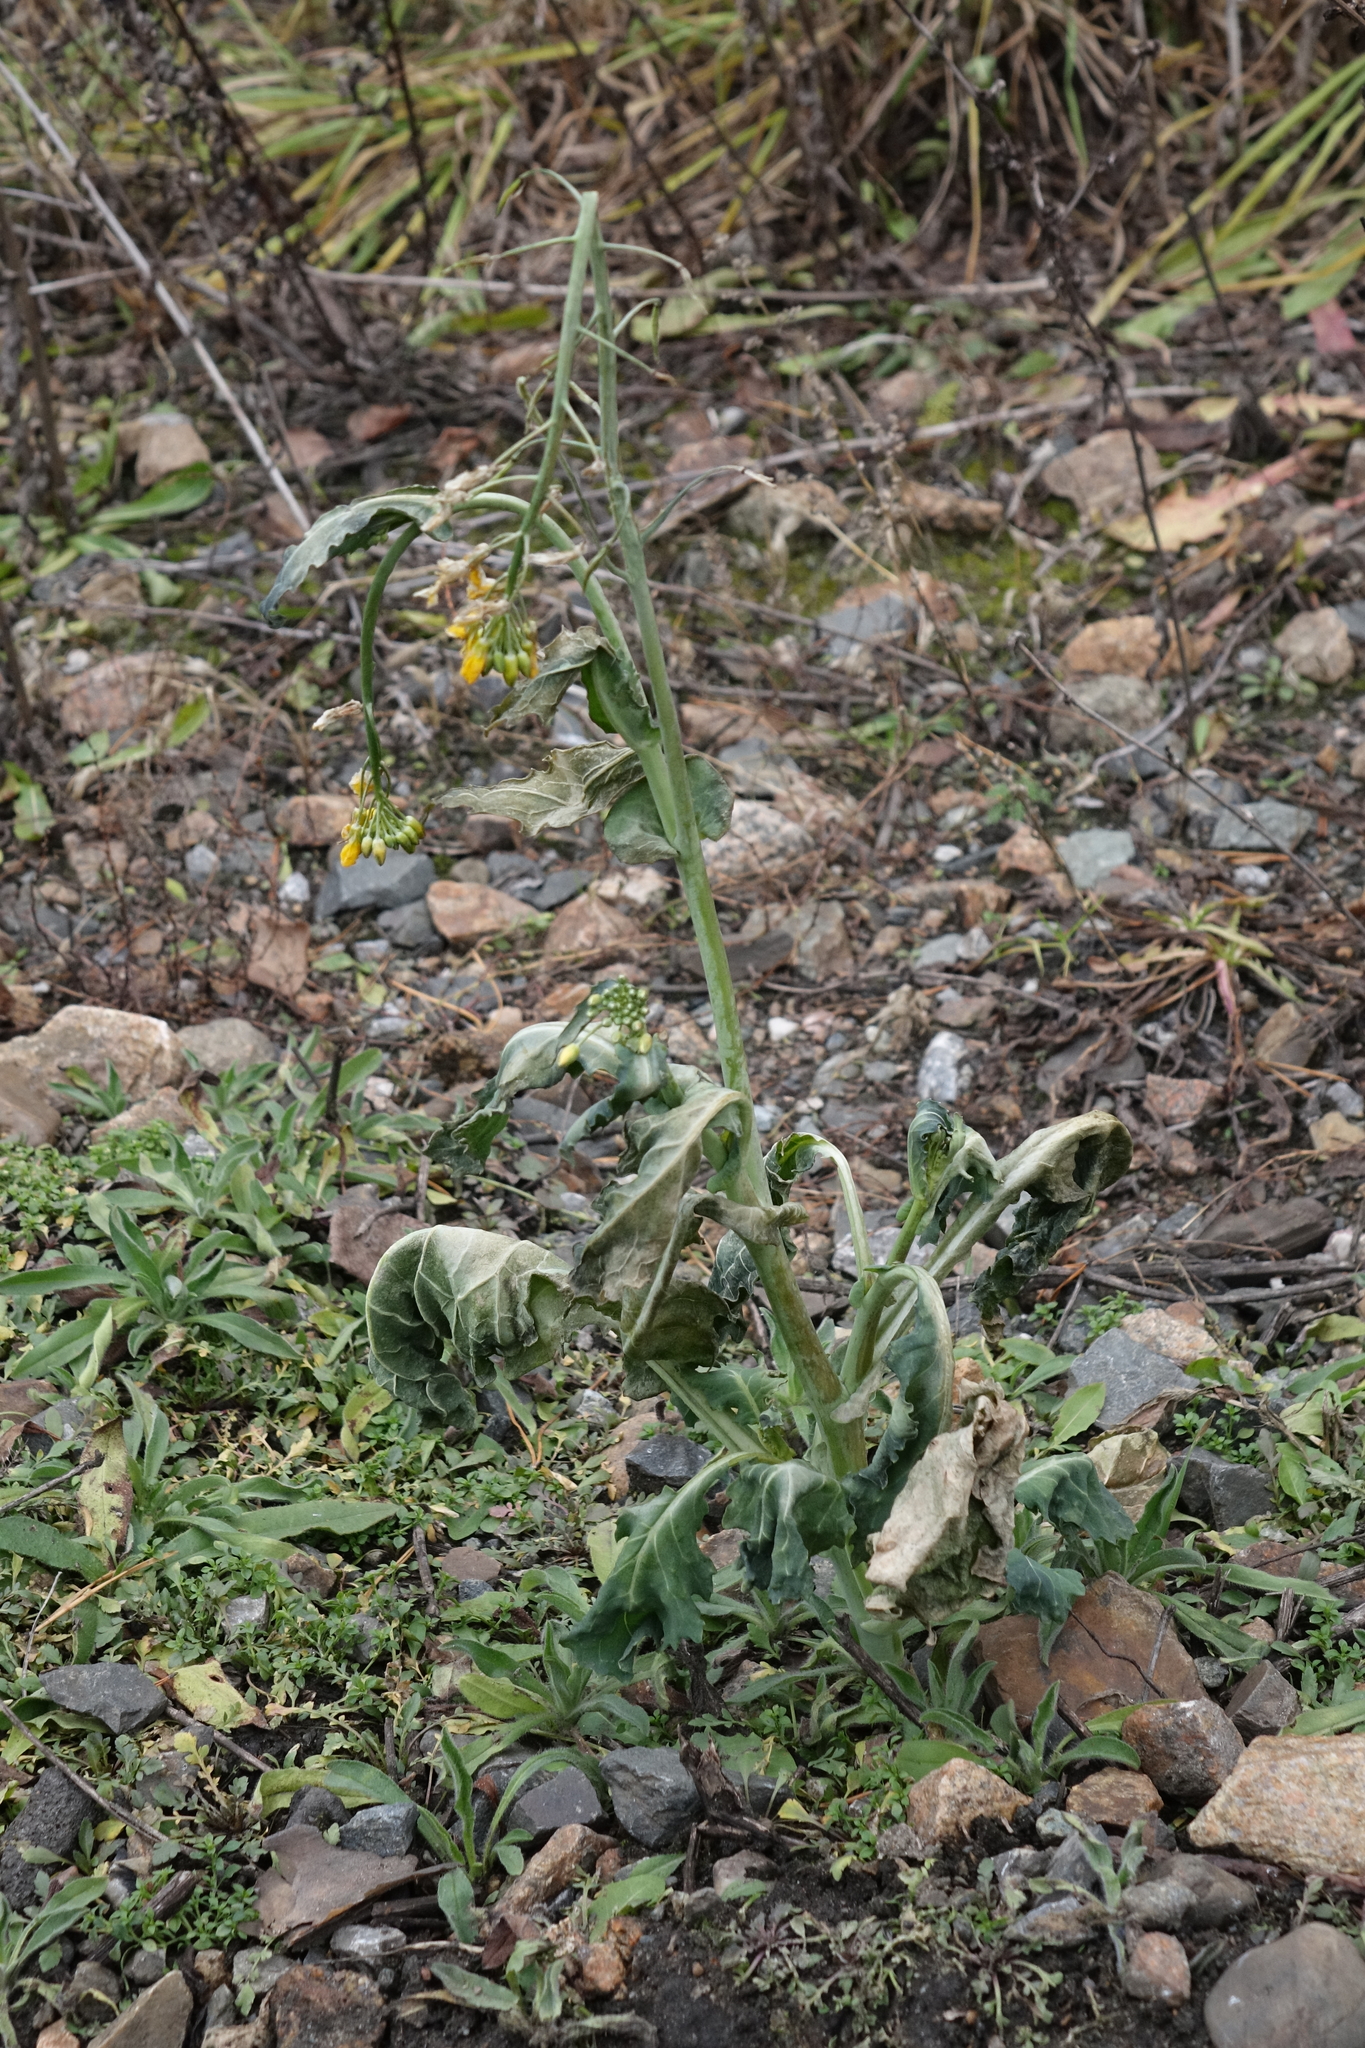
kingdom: Plantae
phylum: Tracheophyta
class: Magnoliopsida
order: Brassicales
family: Brassicaceae
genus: Brassica
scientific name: Brassica napus
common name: Rape
